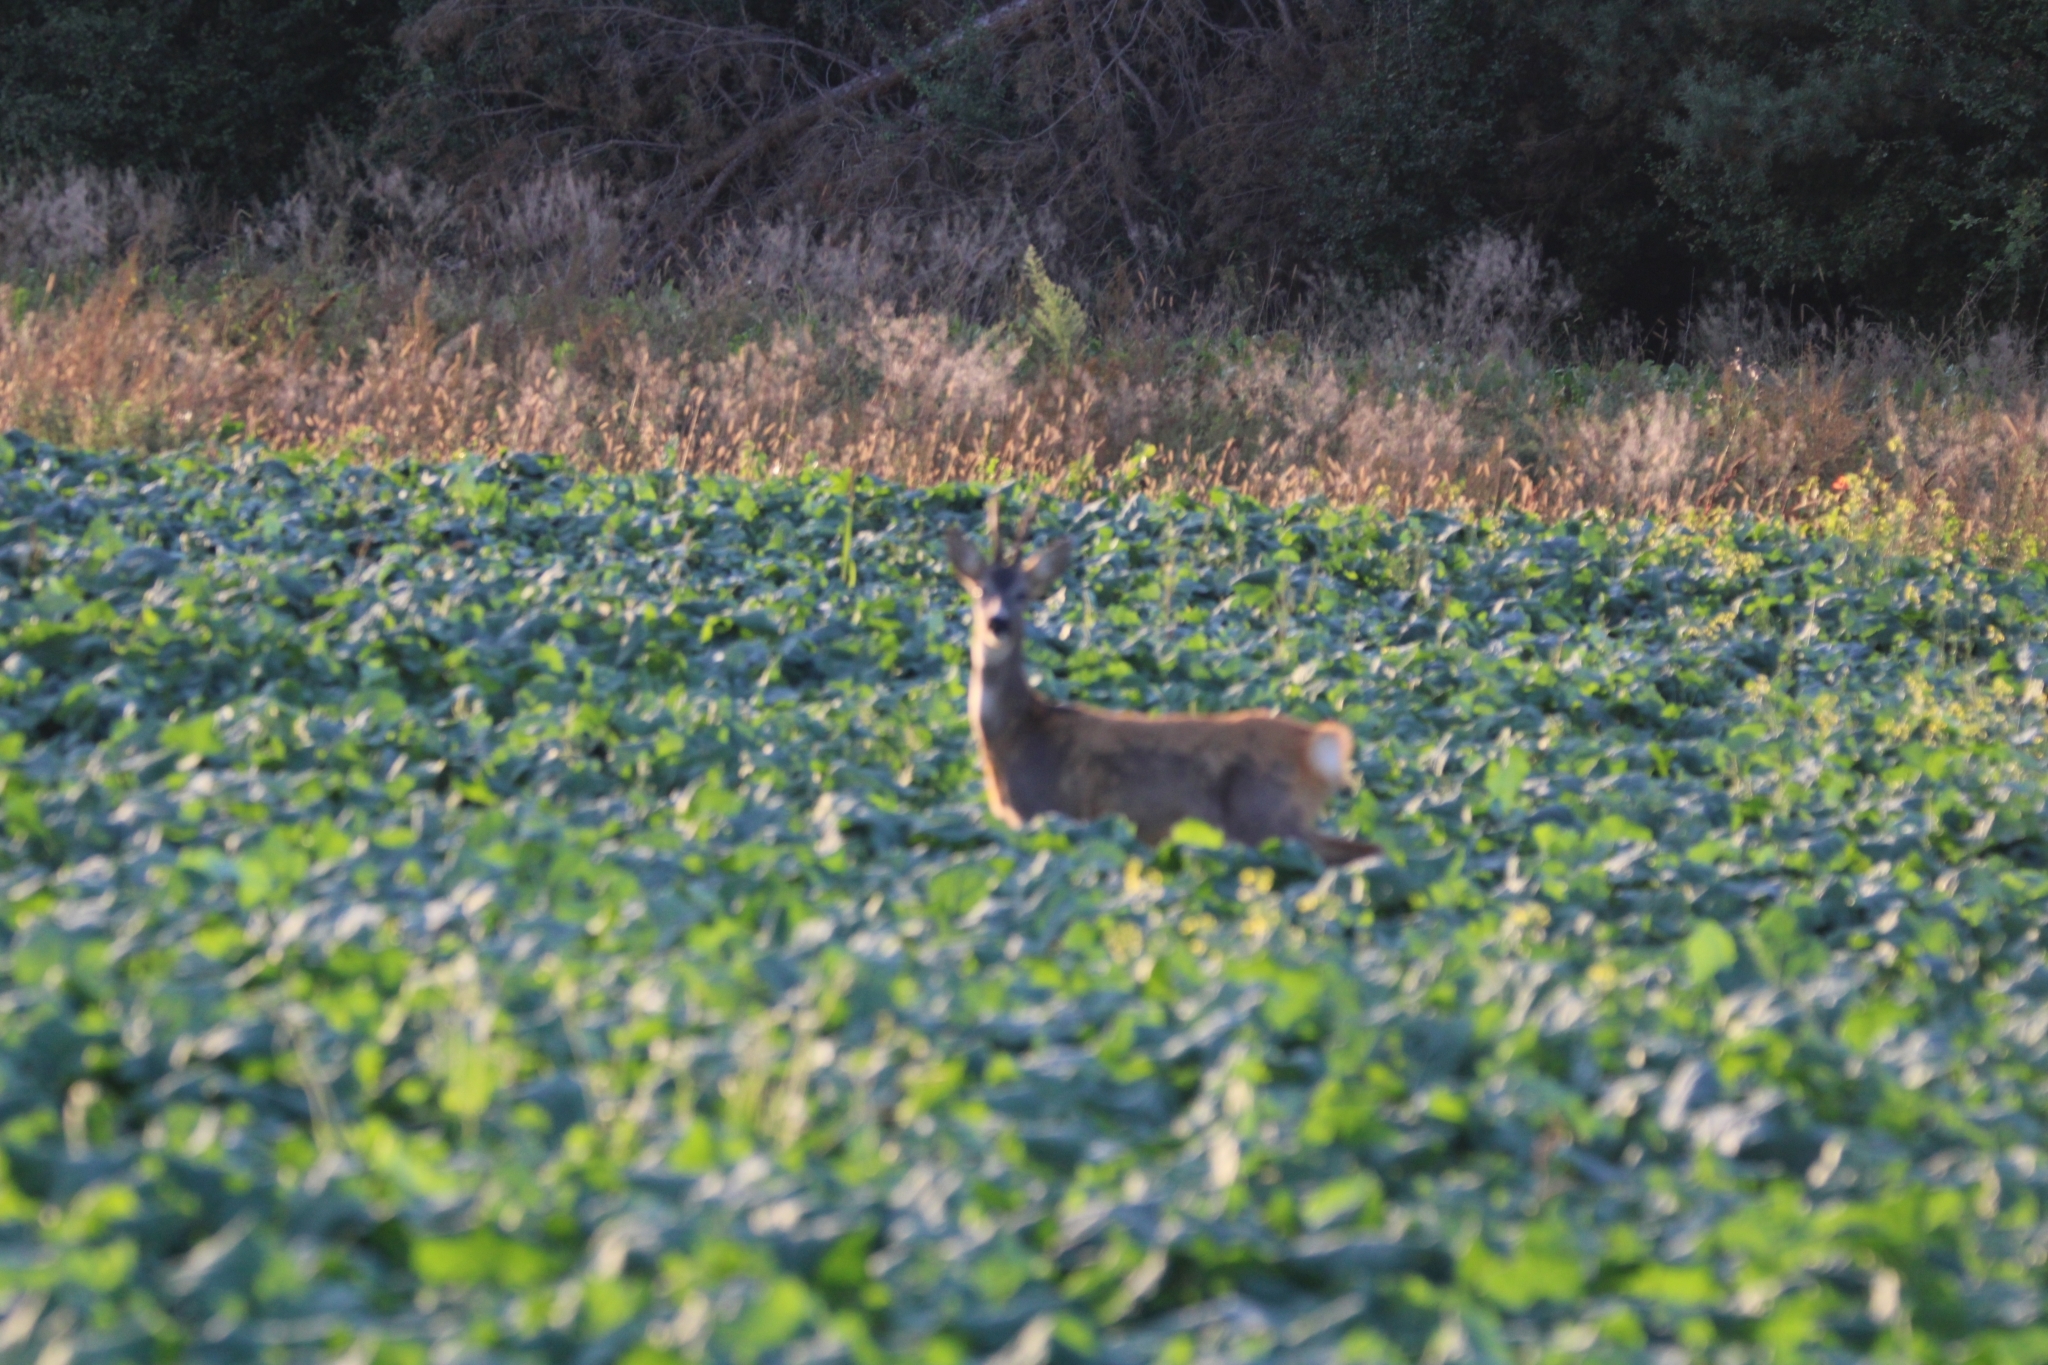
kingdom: Animalia
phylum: Chordata
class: Mammalia
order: Artiodactyla
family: Cervidae
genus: Capreolus
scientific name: Capreolus capreolus
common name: Western roe deer
